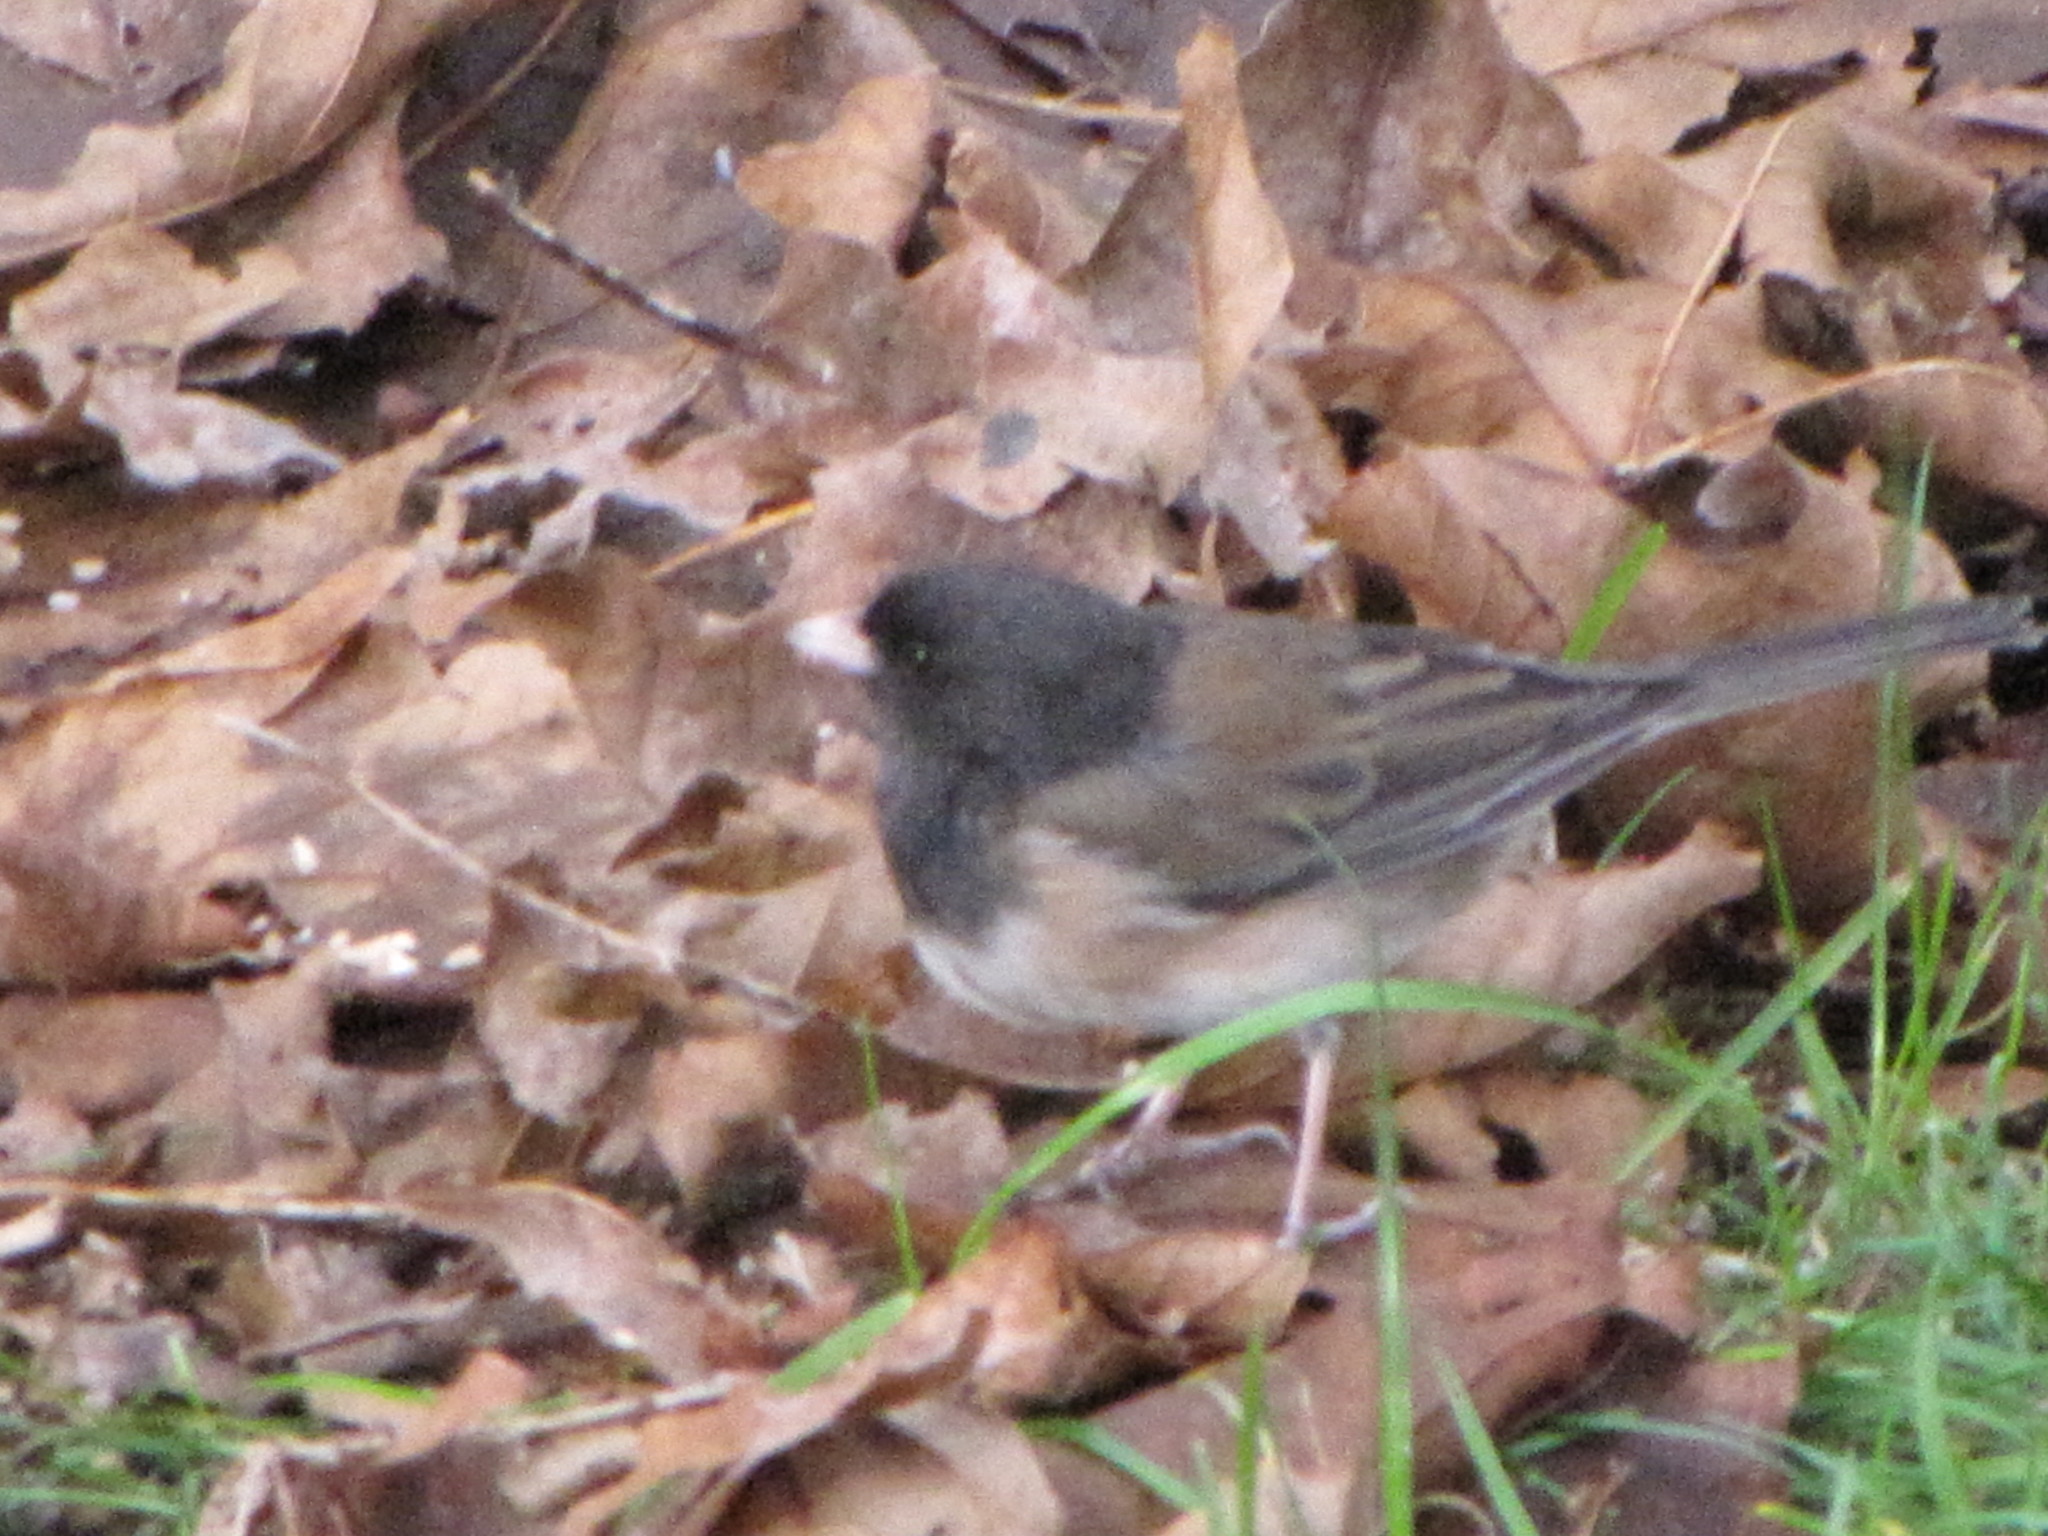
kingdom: Animalia
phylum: Chordata
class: Aves
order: Passeriformes
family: Passerellidae
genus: Junco
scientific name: Junco hyemalis
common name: Dark-eyed junco
